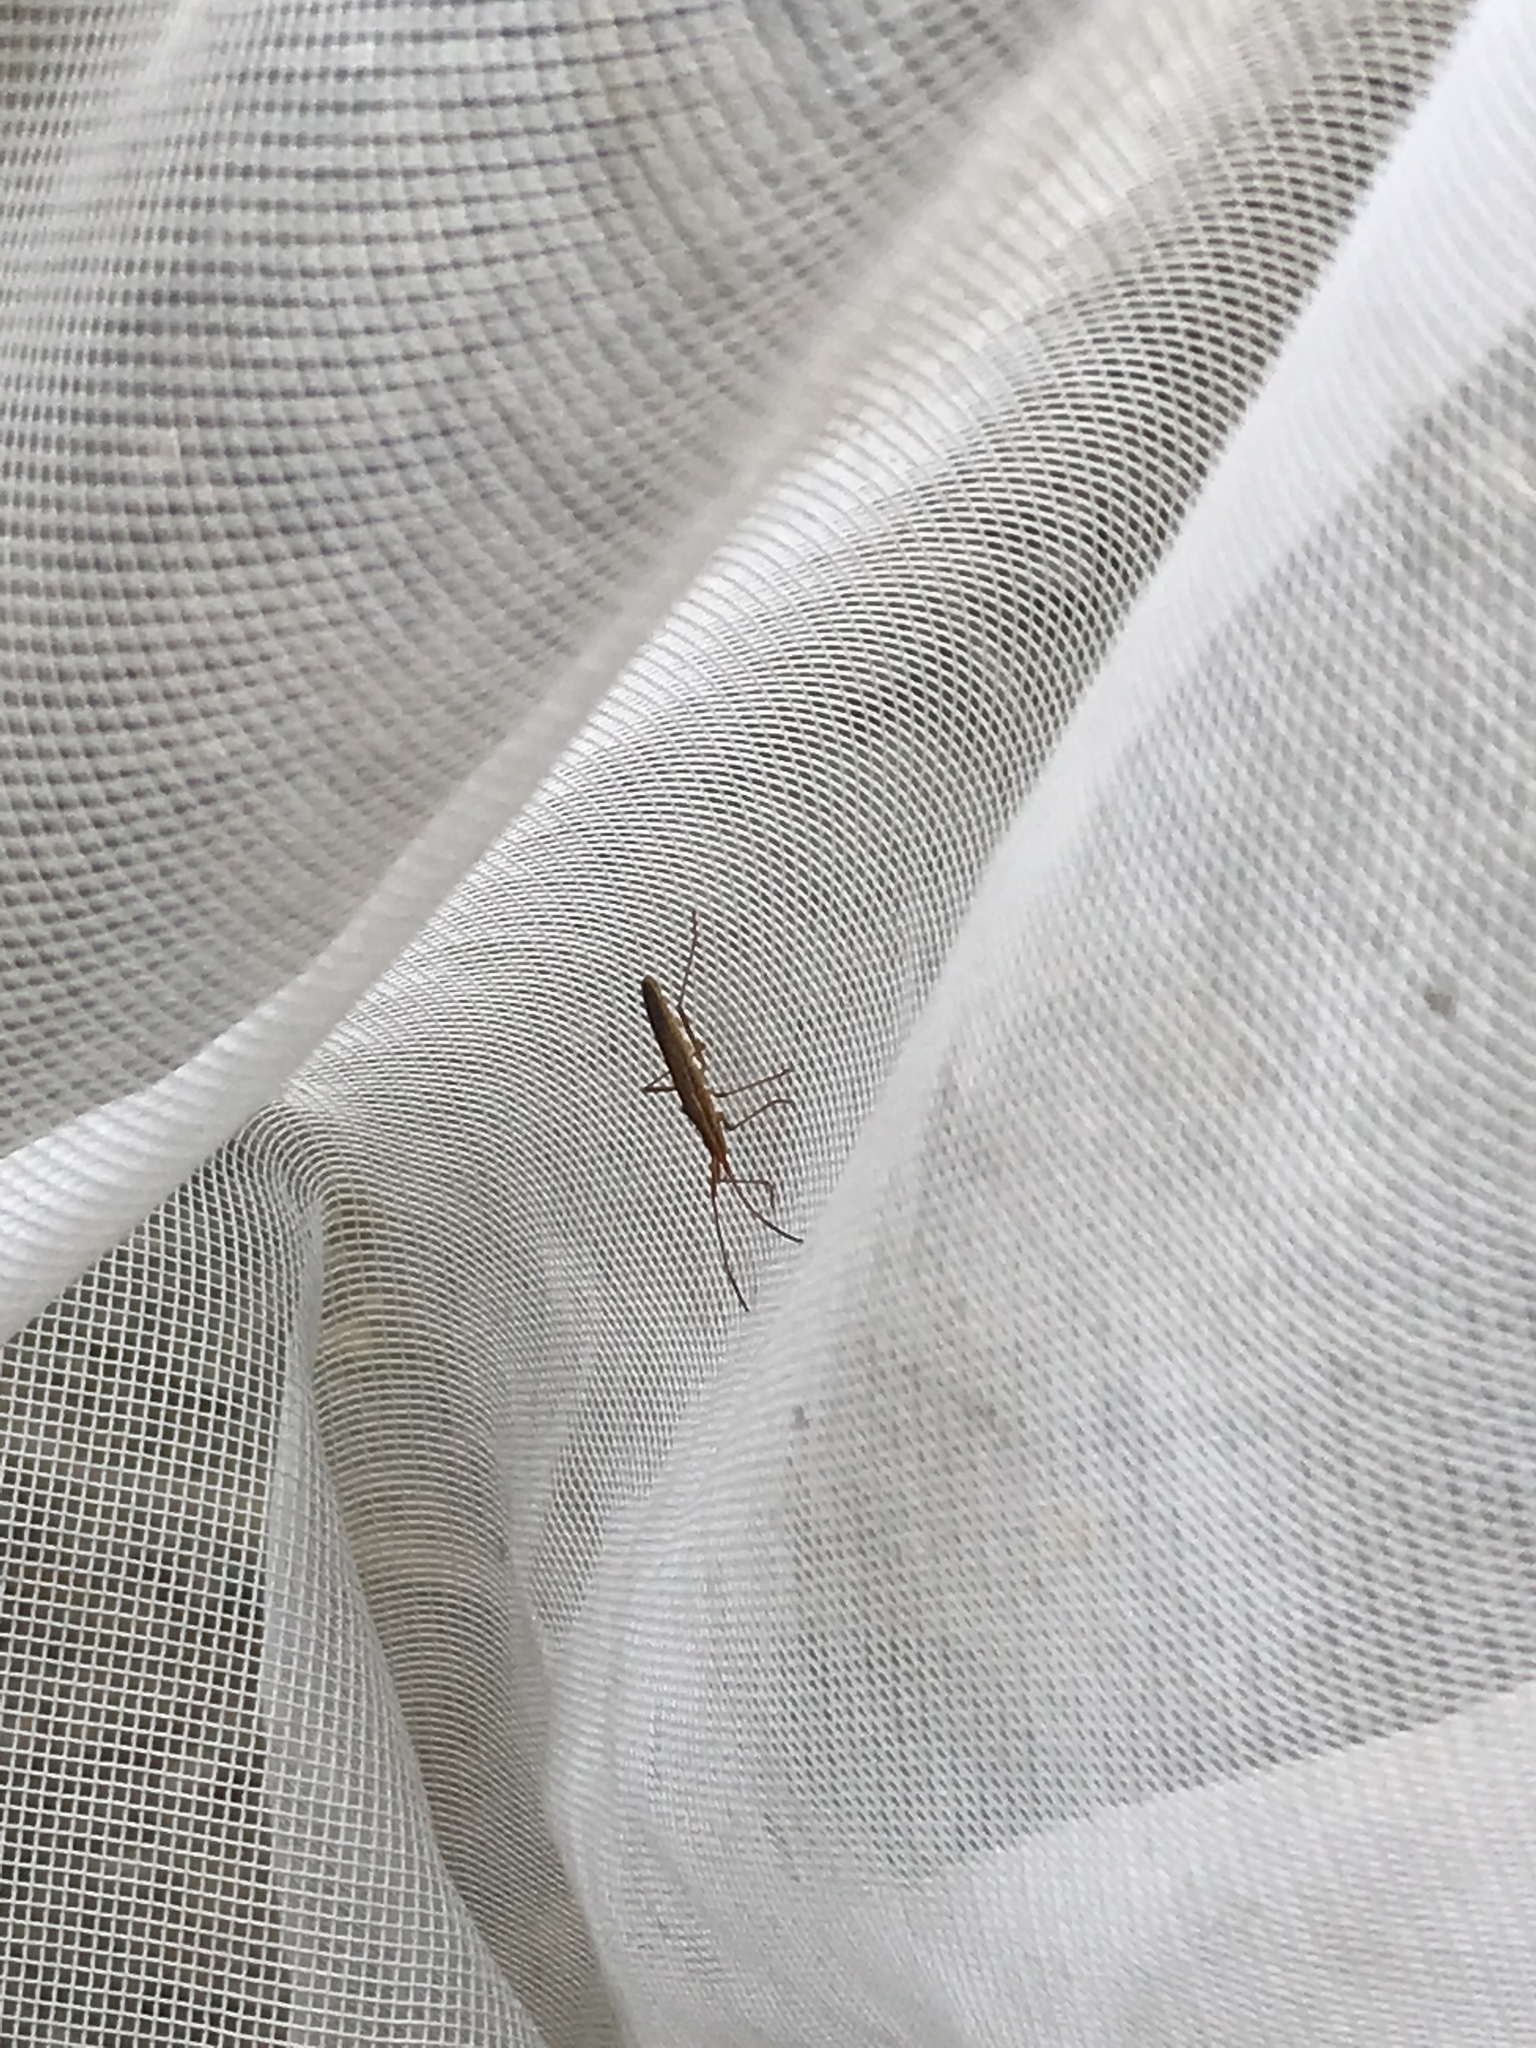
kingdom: Animalia
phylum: Arthropoda
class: Insecta
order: Hemiptera
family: Alydidae
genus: Protenor
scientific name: Protenor belfragei
